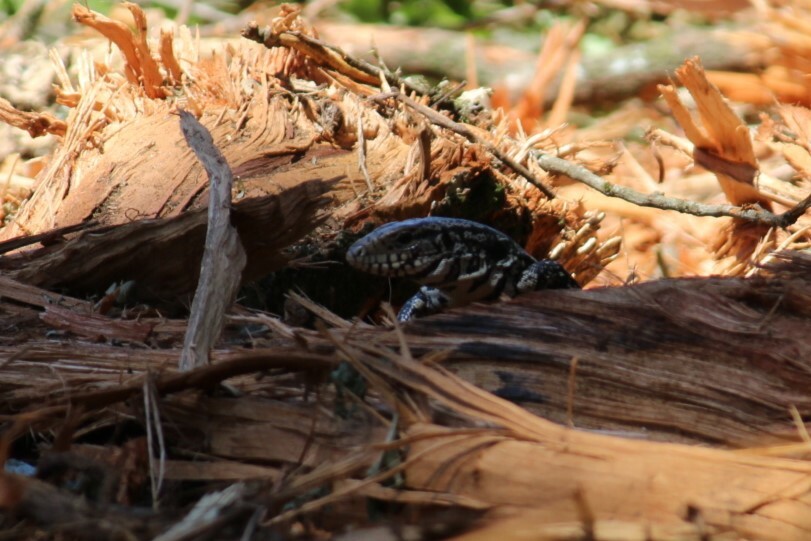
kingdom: Animalia
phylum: Chordata
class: Squamata
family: Teiidae
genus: Salvator
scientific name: Salvator merianae
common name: Argentine black and white tegu
